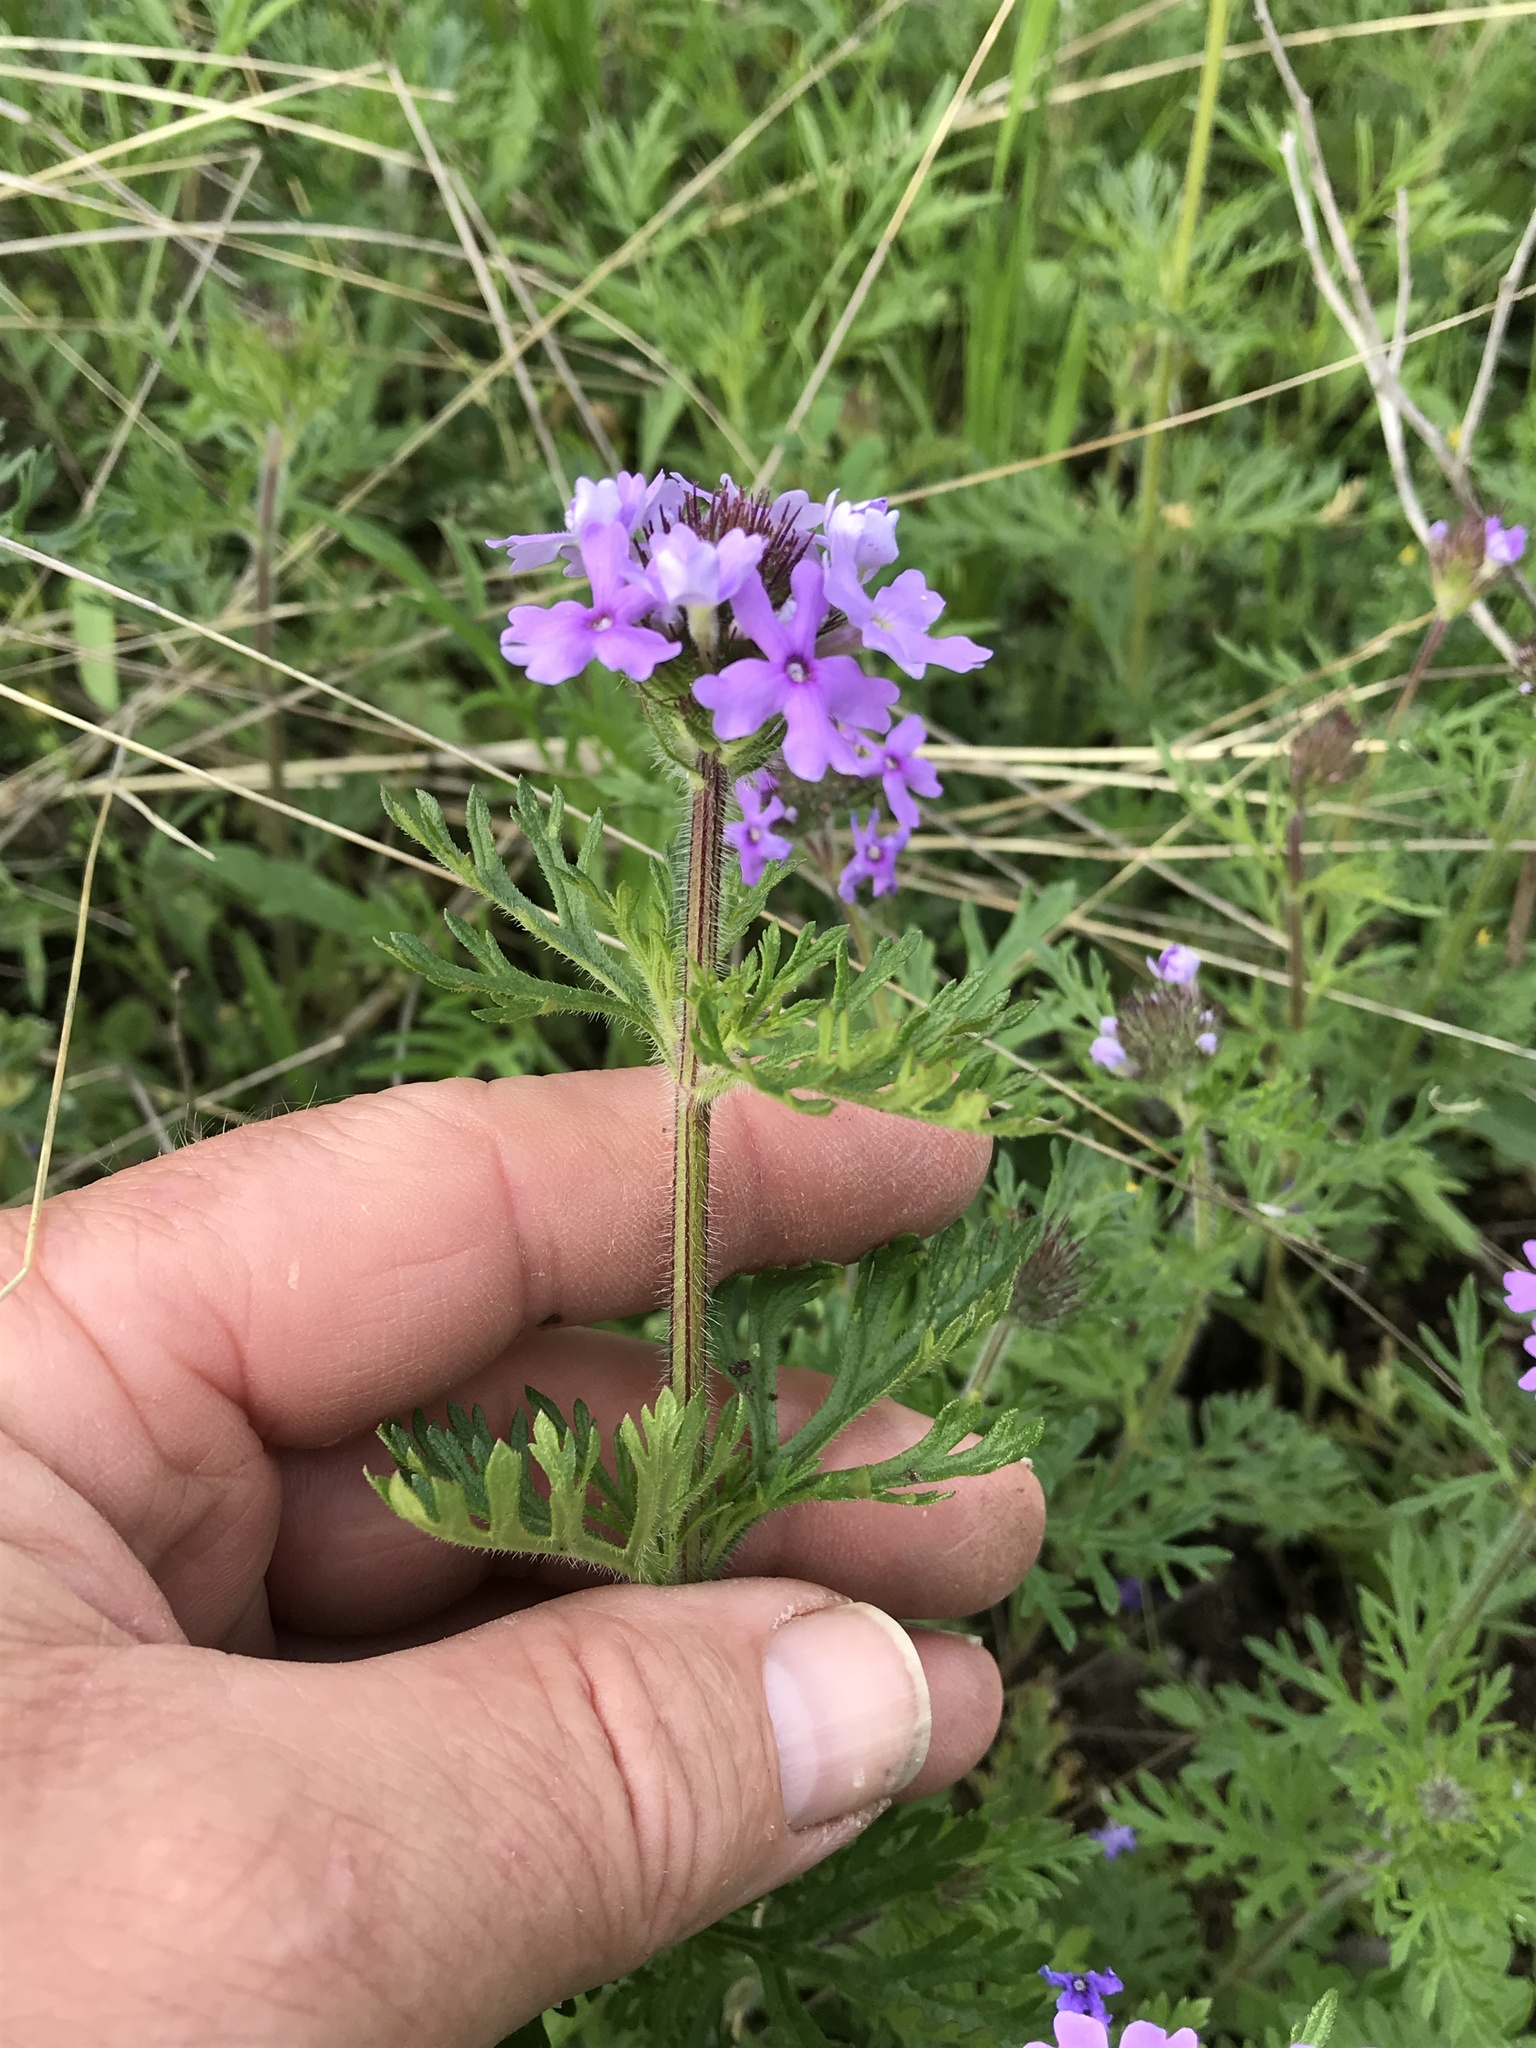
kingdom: Plantae
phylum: Tracheophyta
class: Magnoliopsida
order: Lamiales
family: Verbenaceae
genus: Verbena
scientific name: Verbena bipinnatifida
